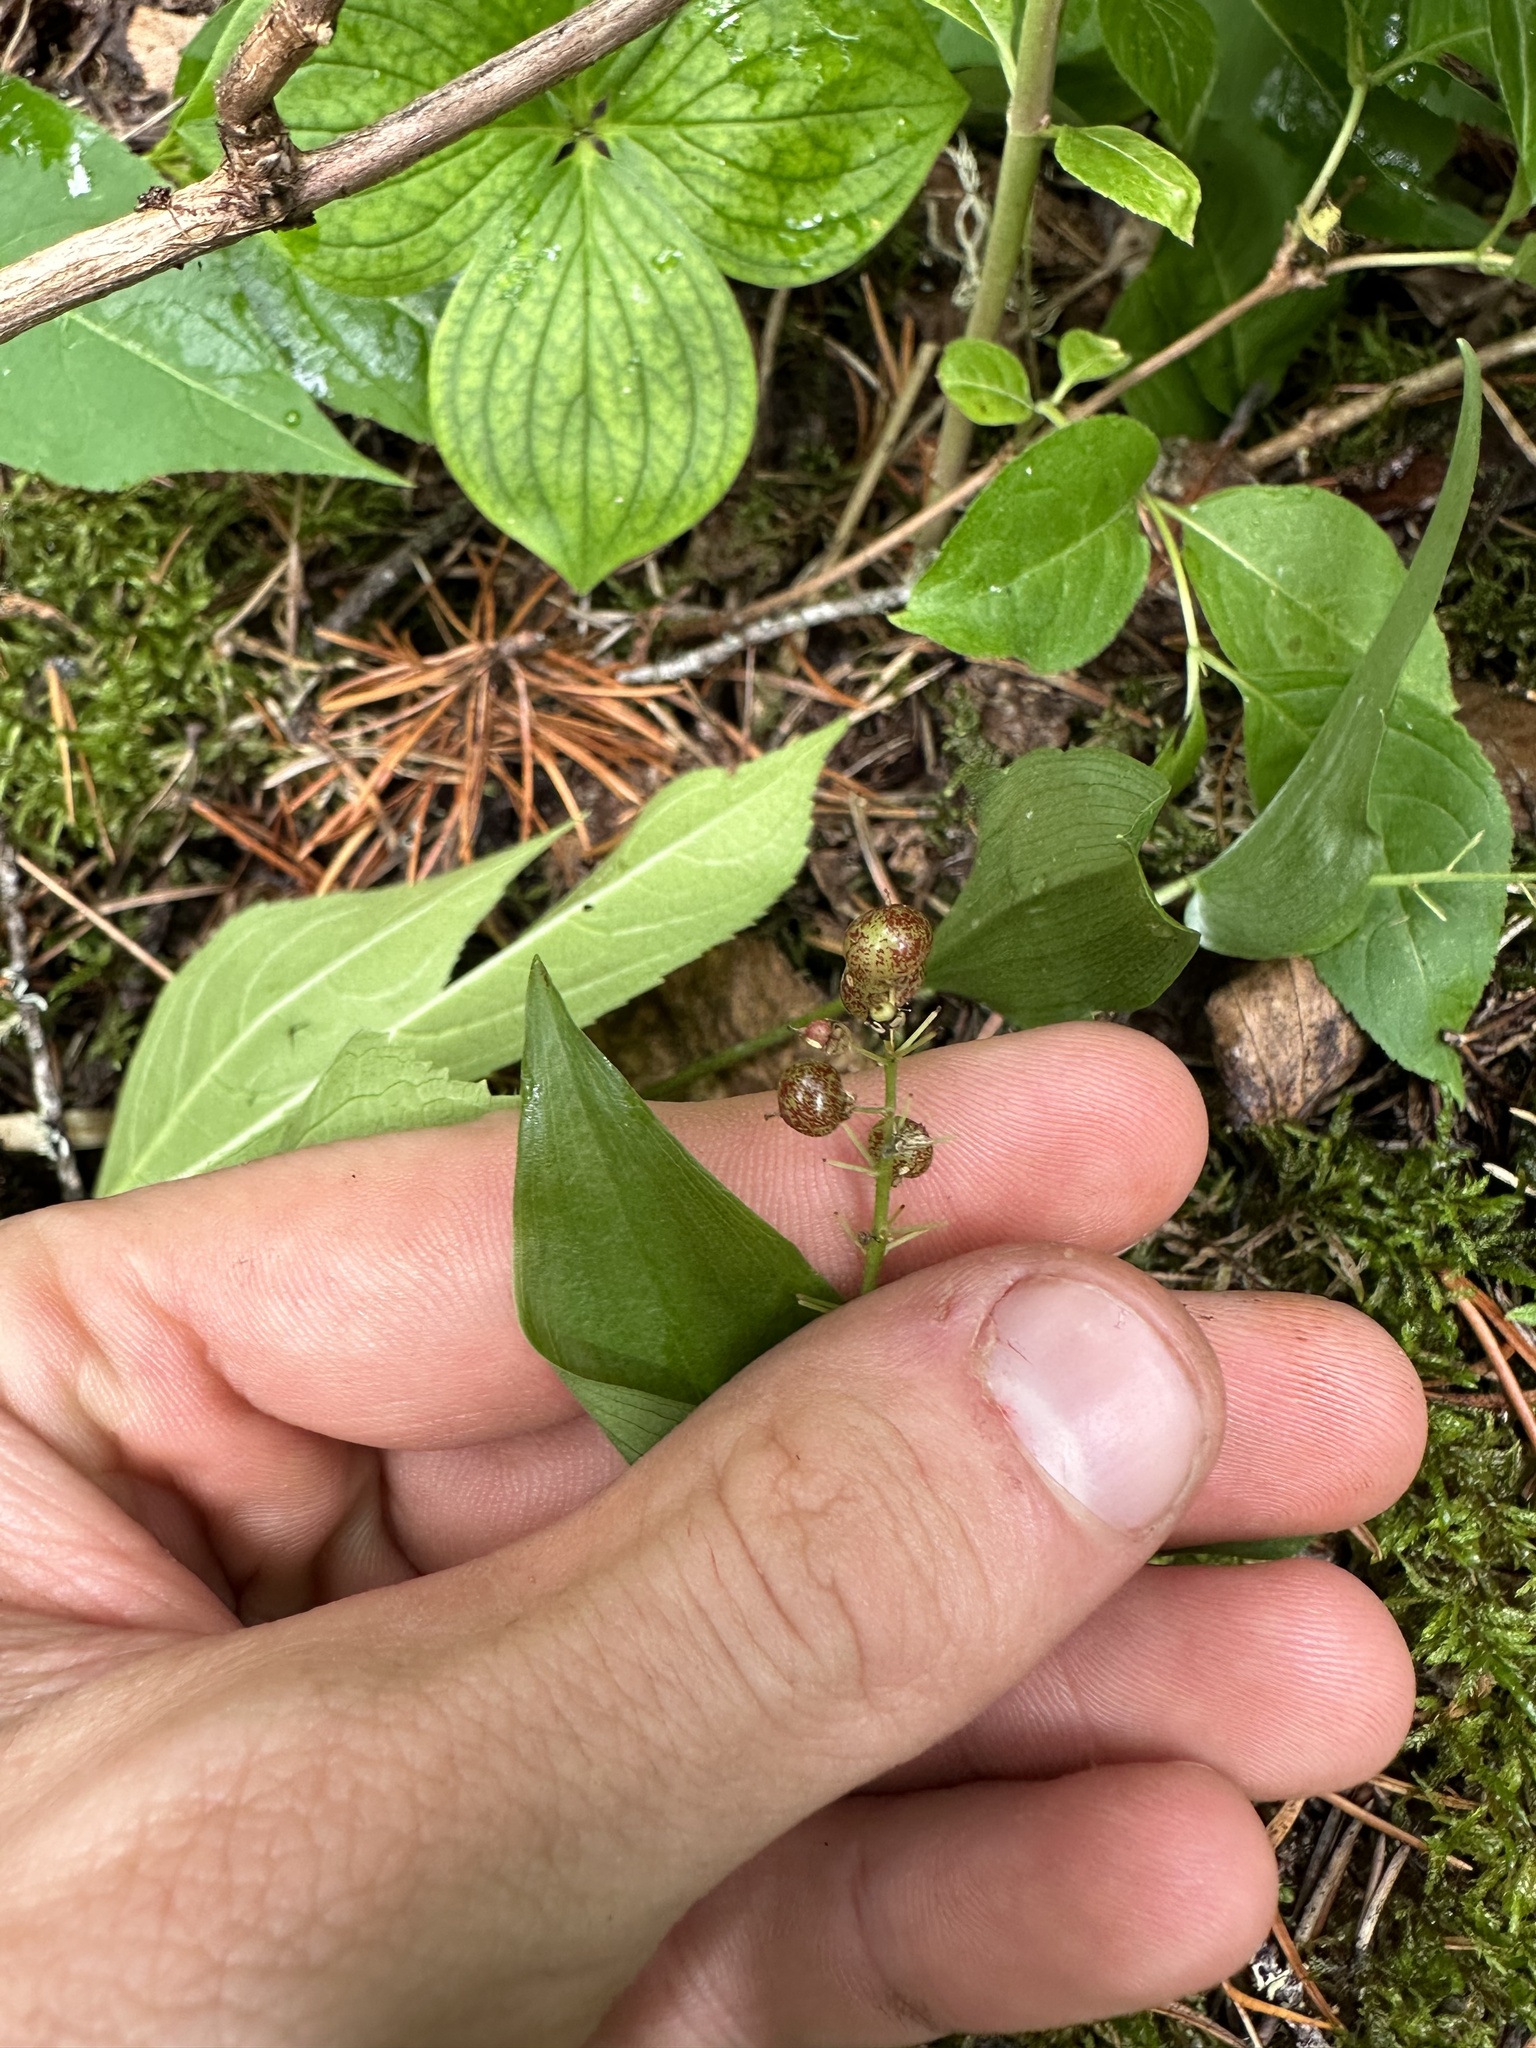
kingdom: Plantae
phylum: Tracheophyta
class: Liliopsida
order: Asparagales
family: Asparagaceae
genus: Maianthemum
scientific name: Maianthemum canadense
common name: False lily-of-the-valley
